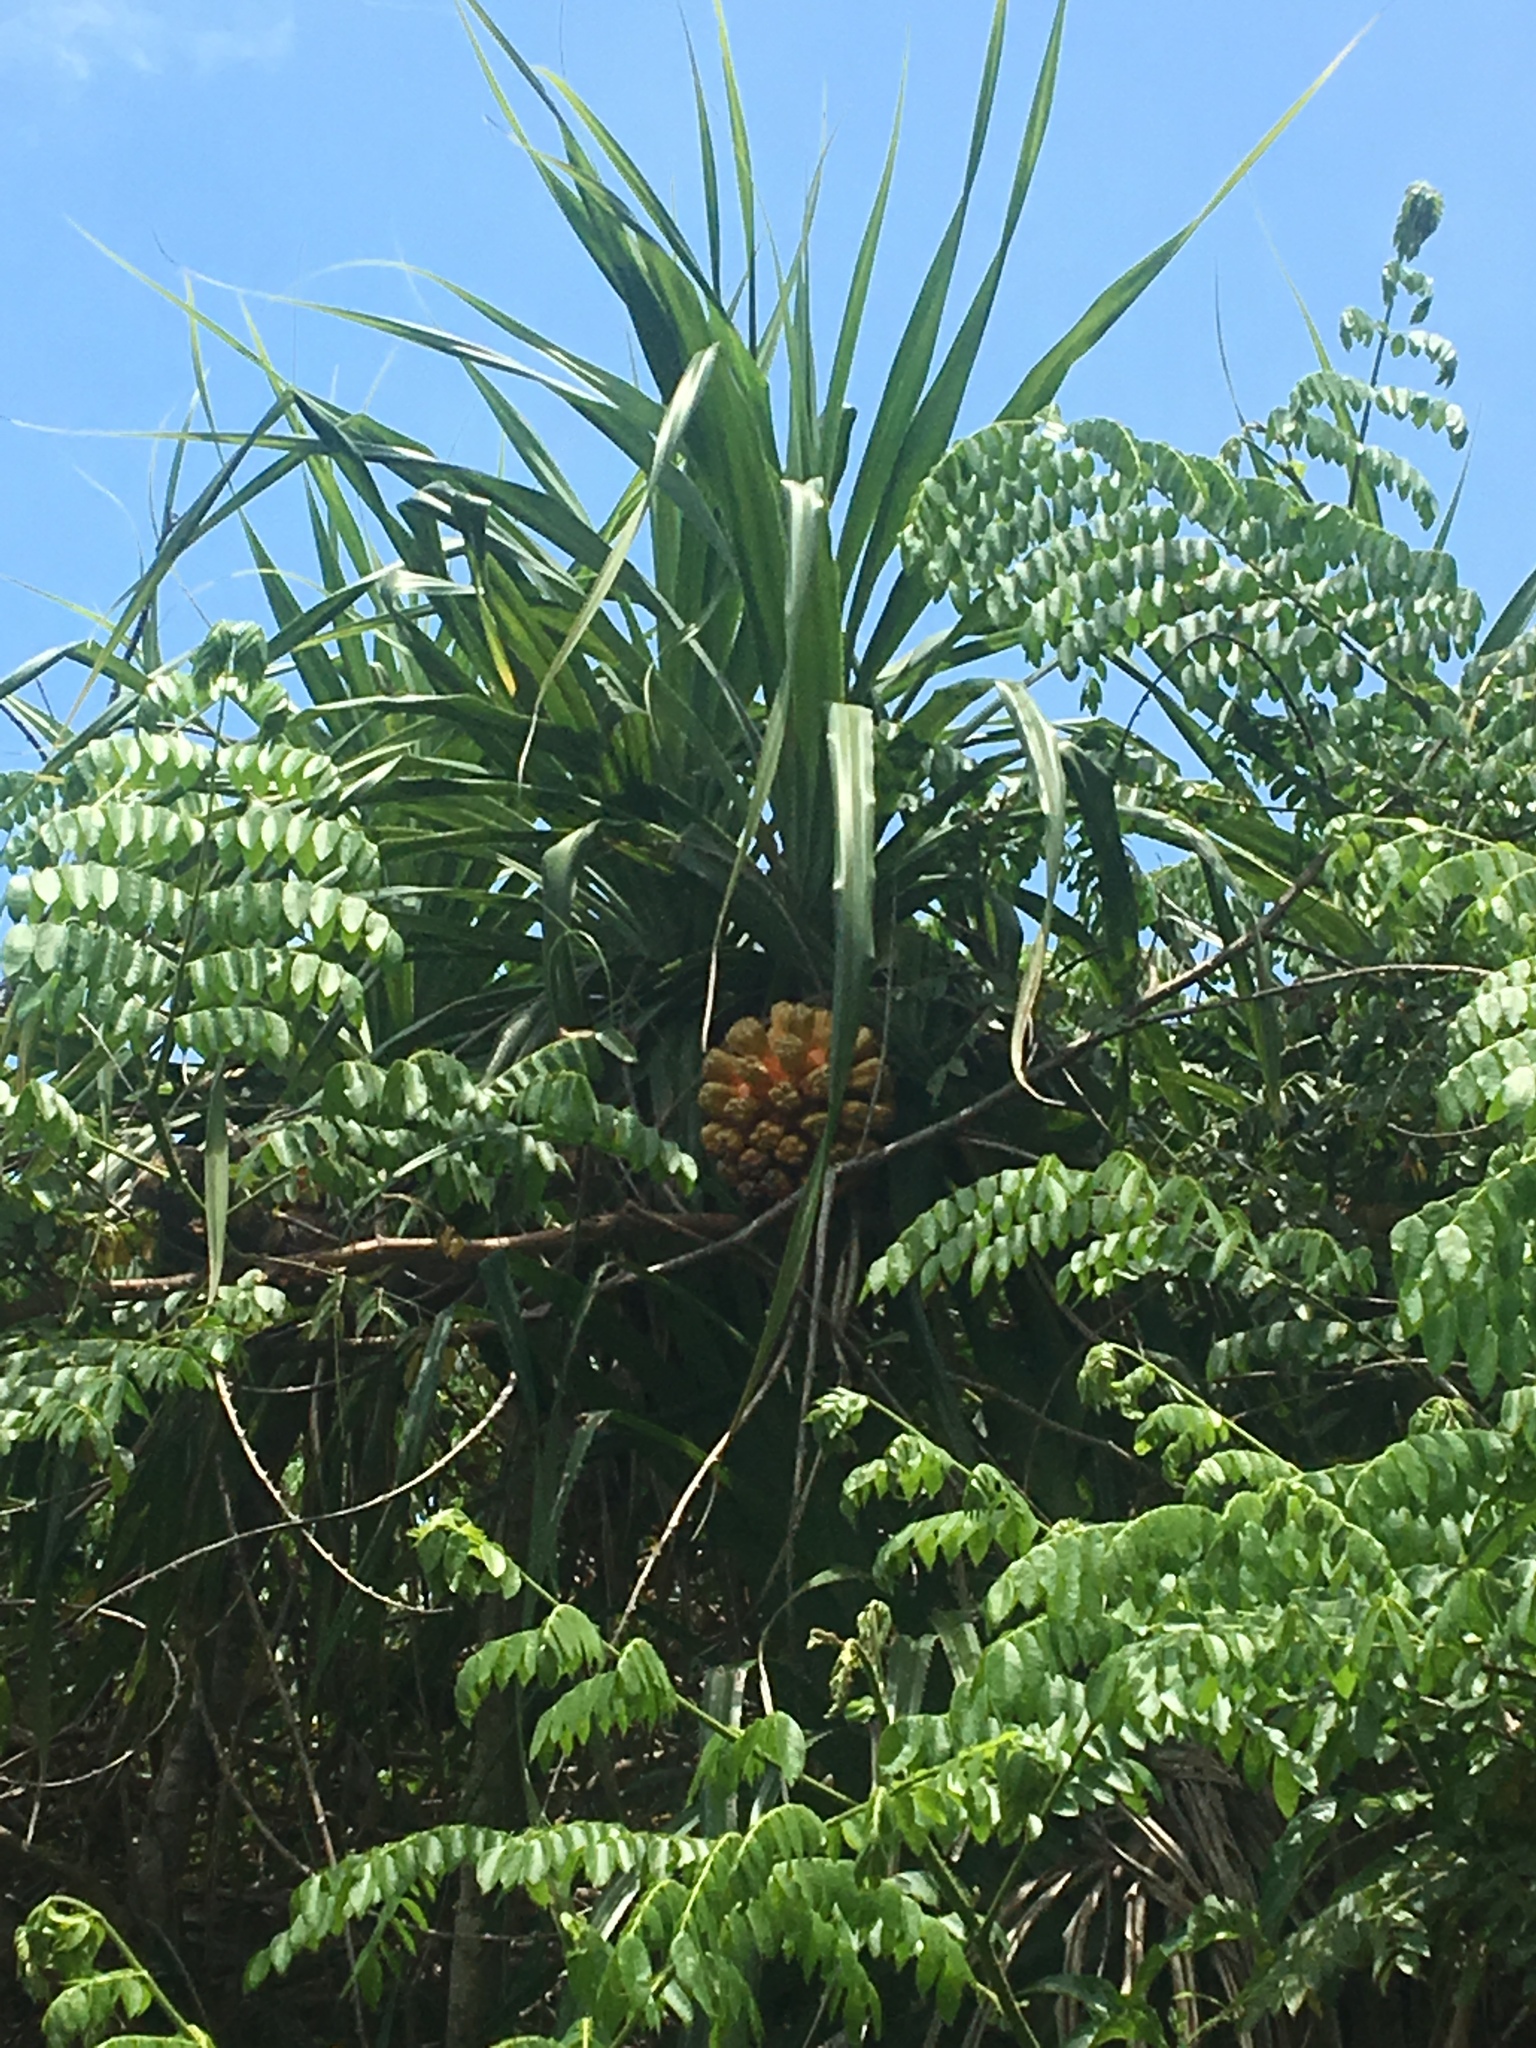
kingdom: Plantae
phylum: Tracheophyta
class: Liliopsida
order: Pandanales
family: Pandanaceae
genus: Pandanus
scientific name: Pandanus tectorius
